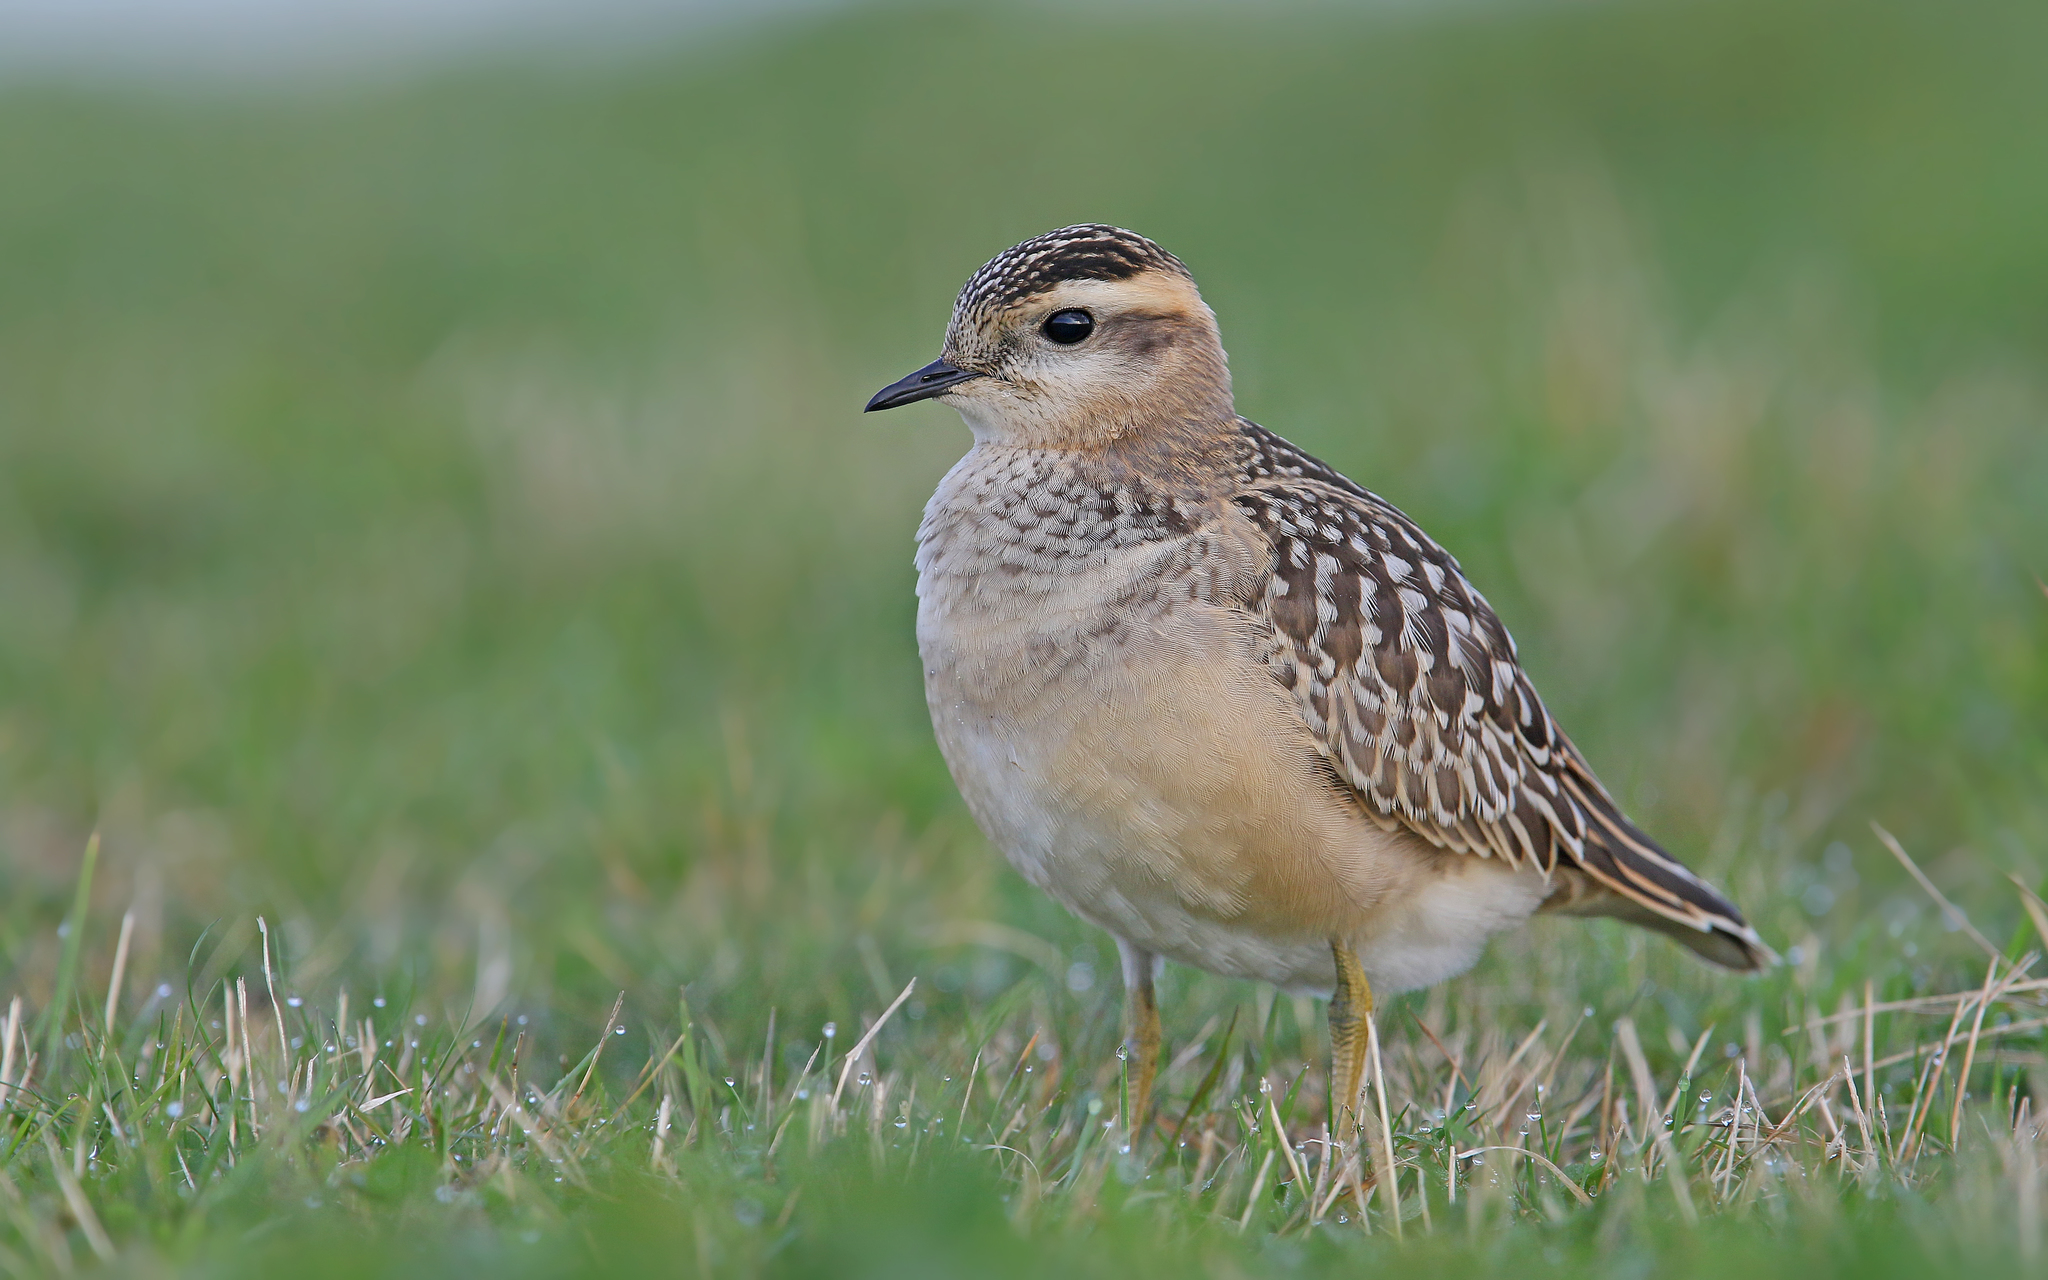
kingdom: Animalia
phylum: Chordata
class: Aves
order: Charadriiformes
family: Charadriidae
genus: Charadrius
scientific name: Charadrius morinellus
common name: Eurasian dotterel
